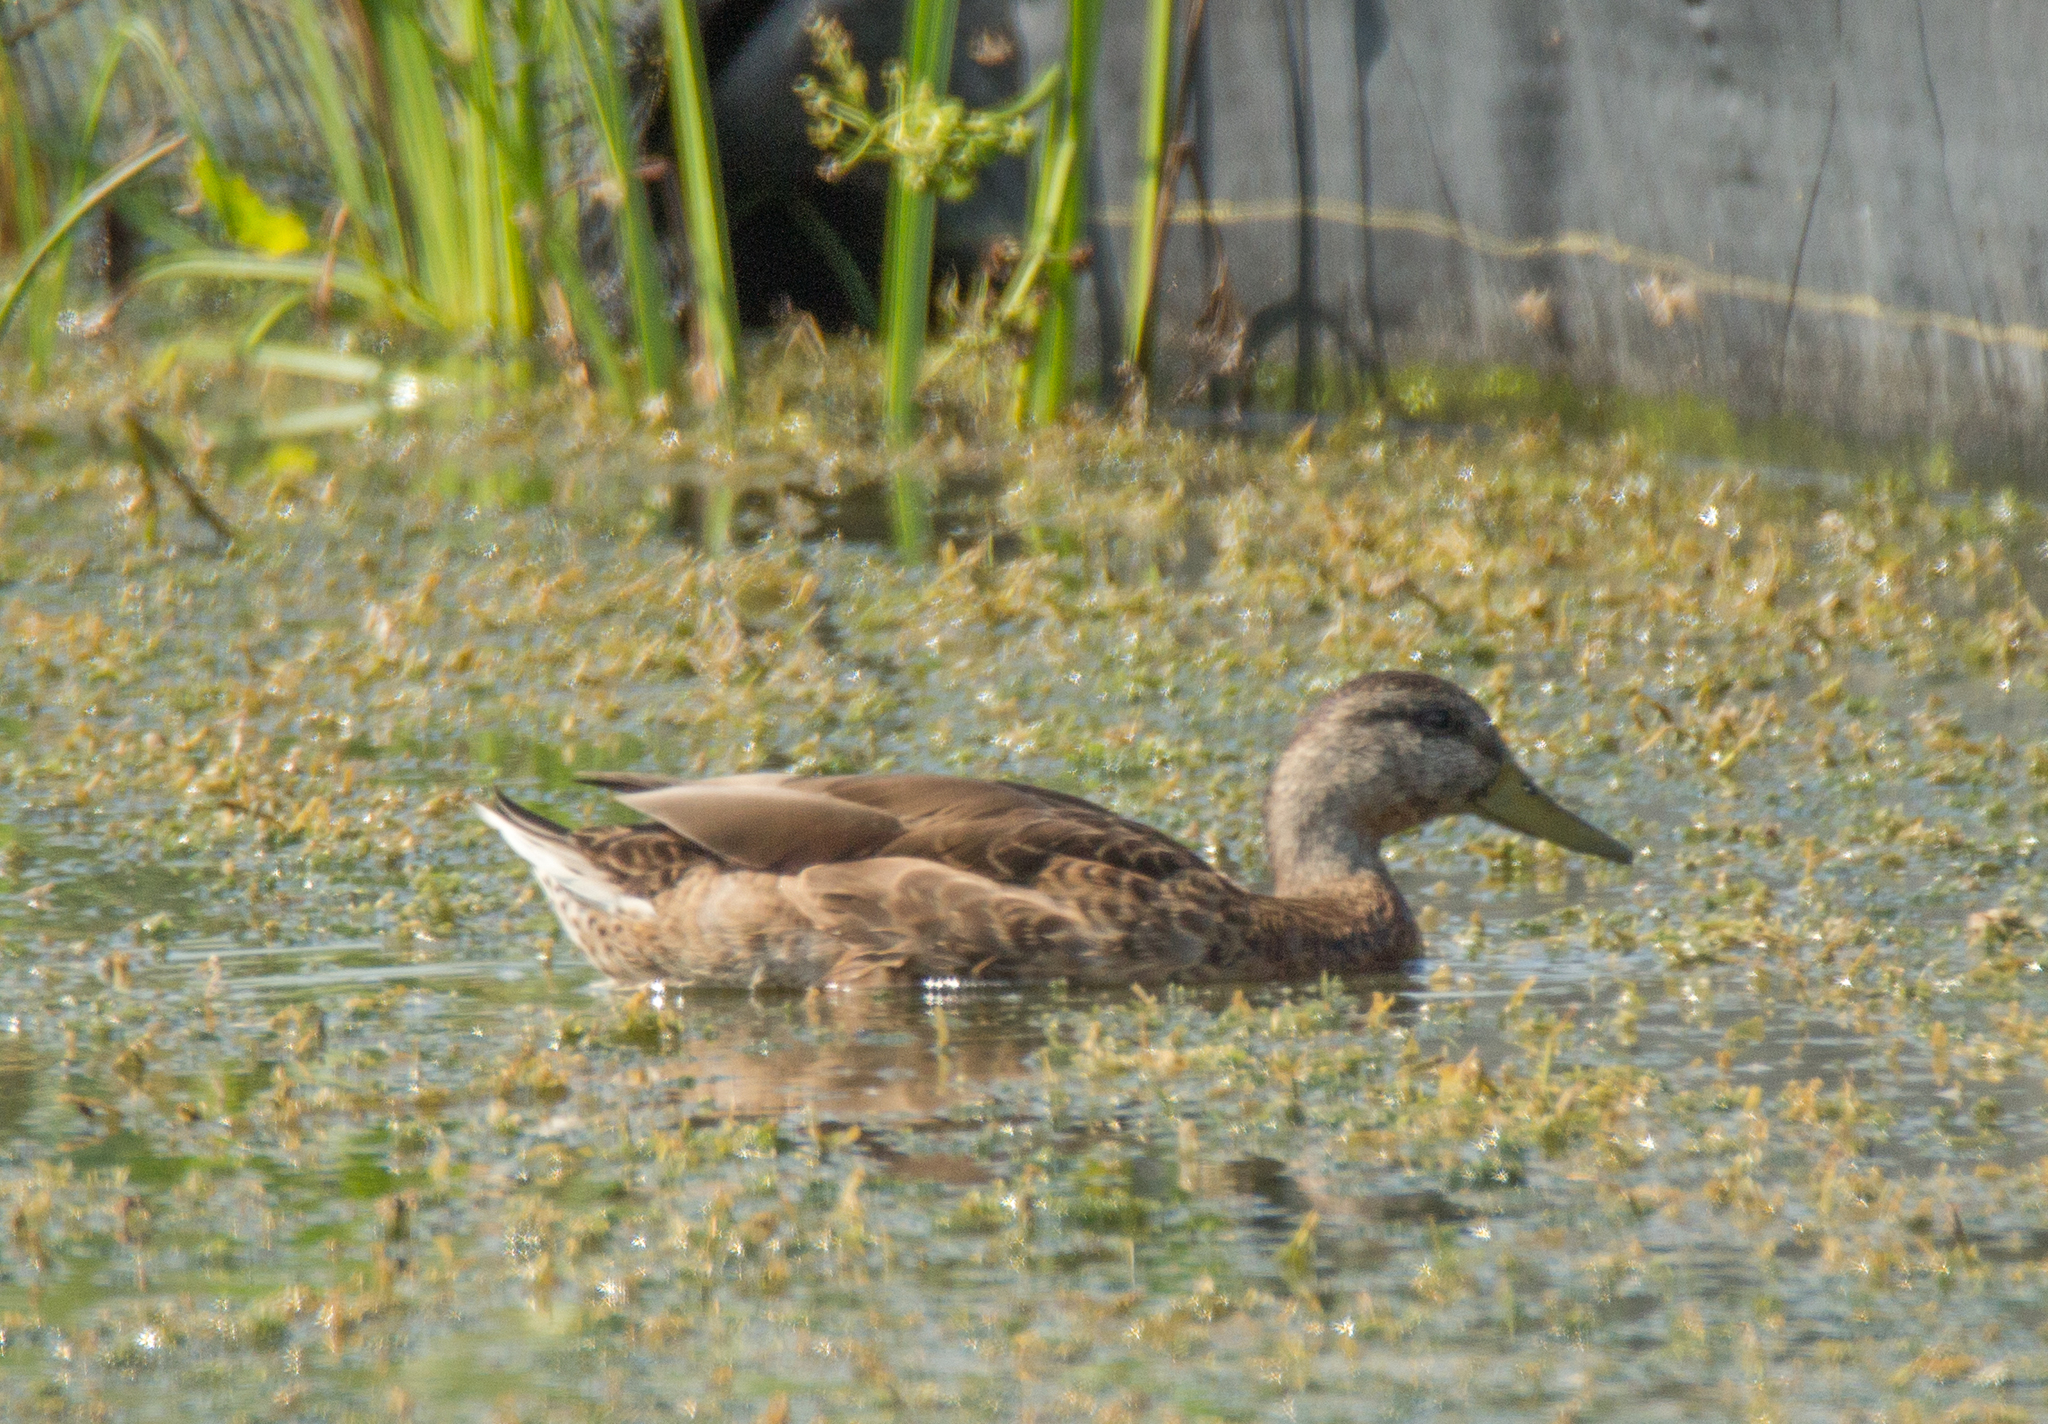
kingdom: Animalia
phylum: Chordata
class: Aves
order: Anseriformes
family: Anatidae
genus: Anas
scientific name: Anas platyrhynchos
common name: Mallard
